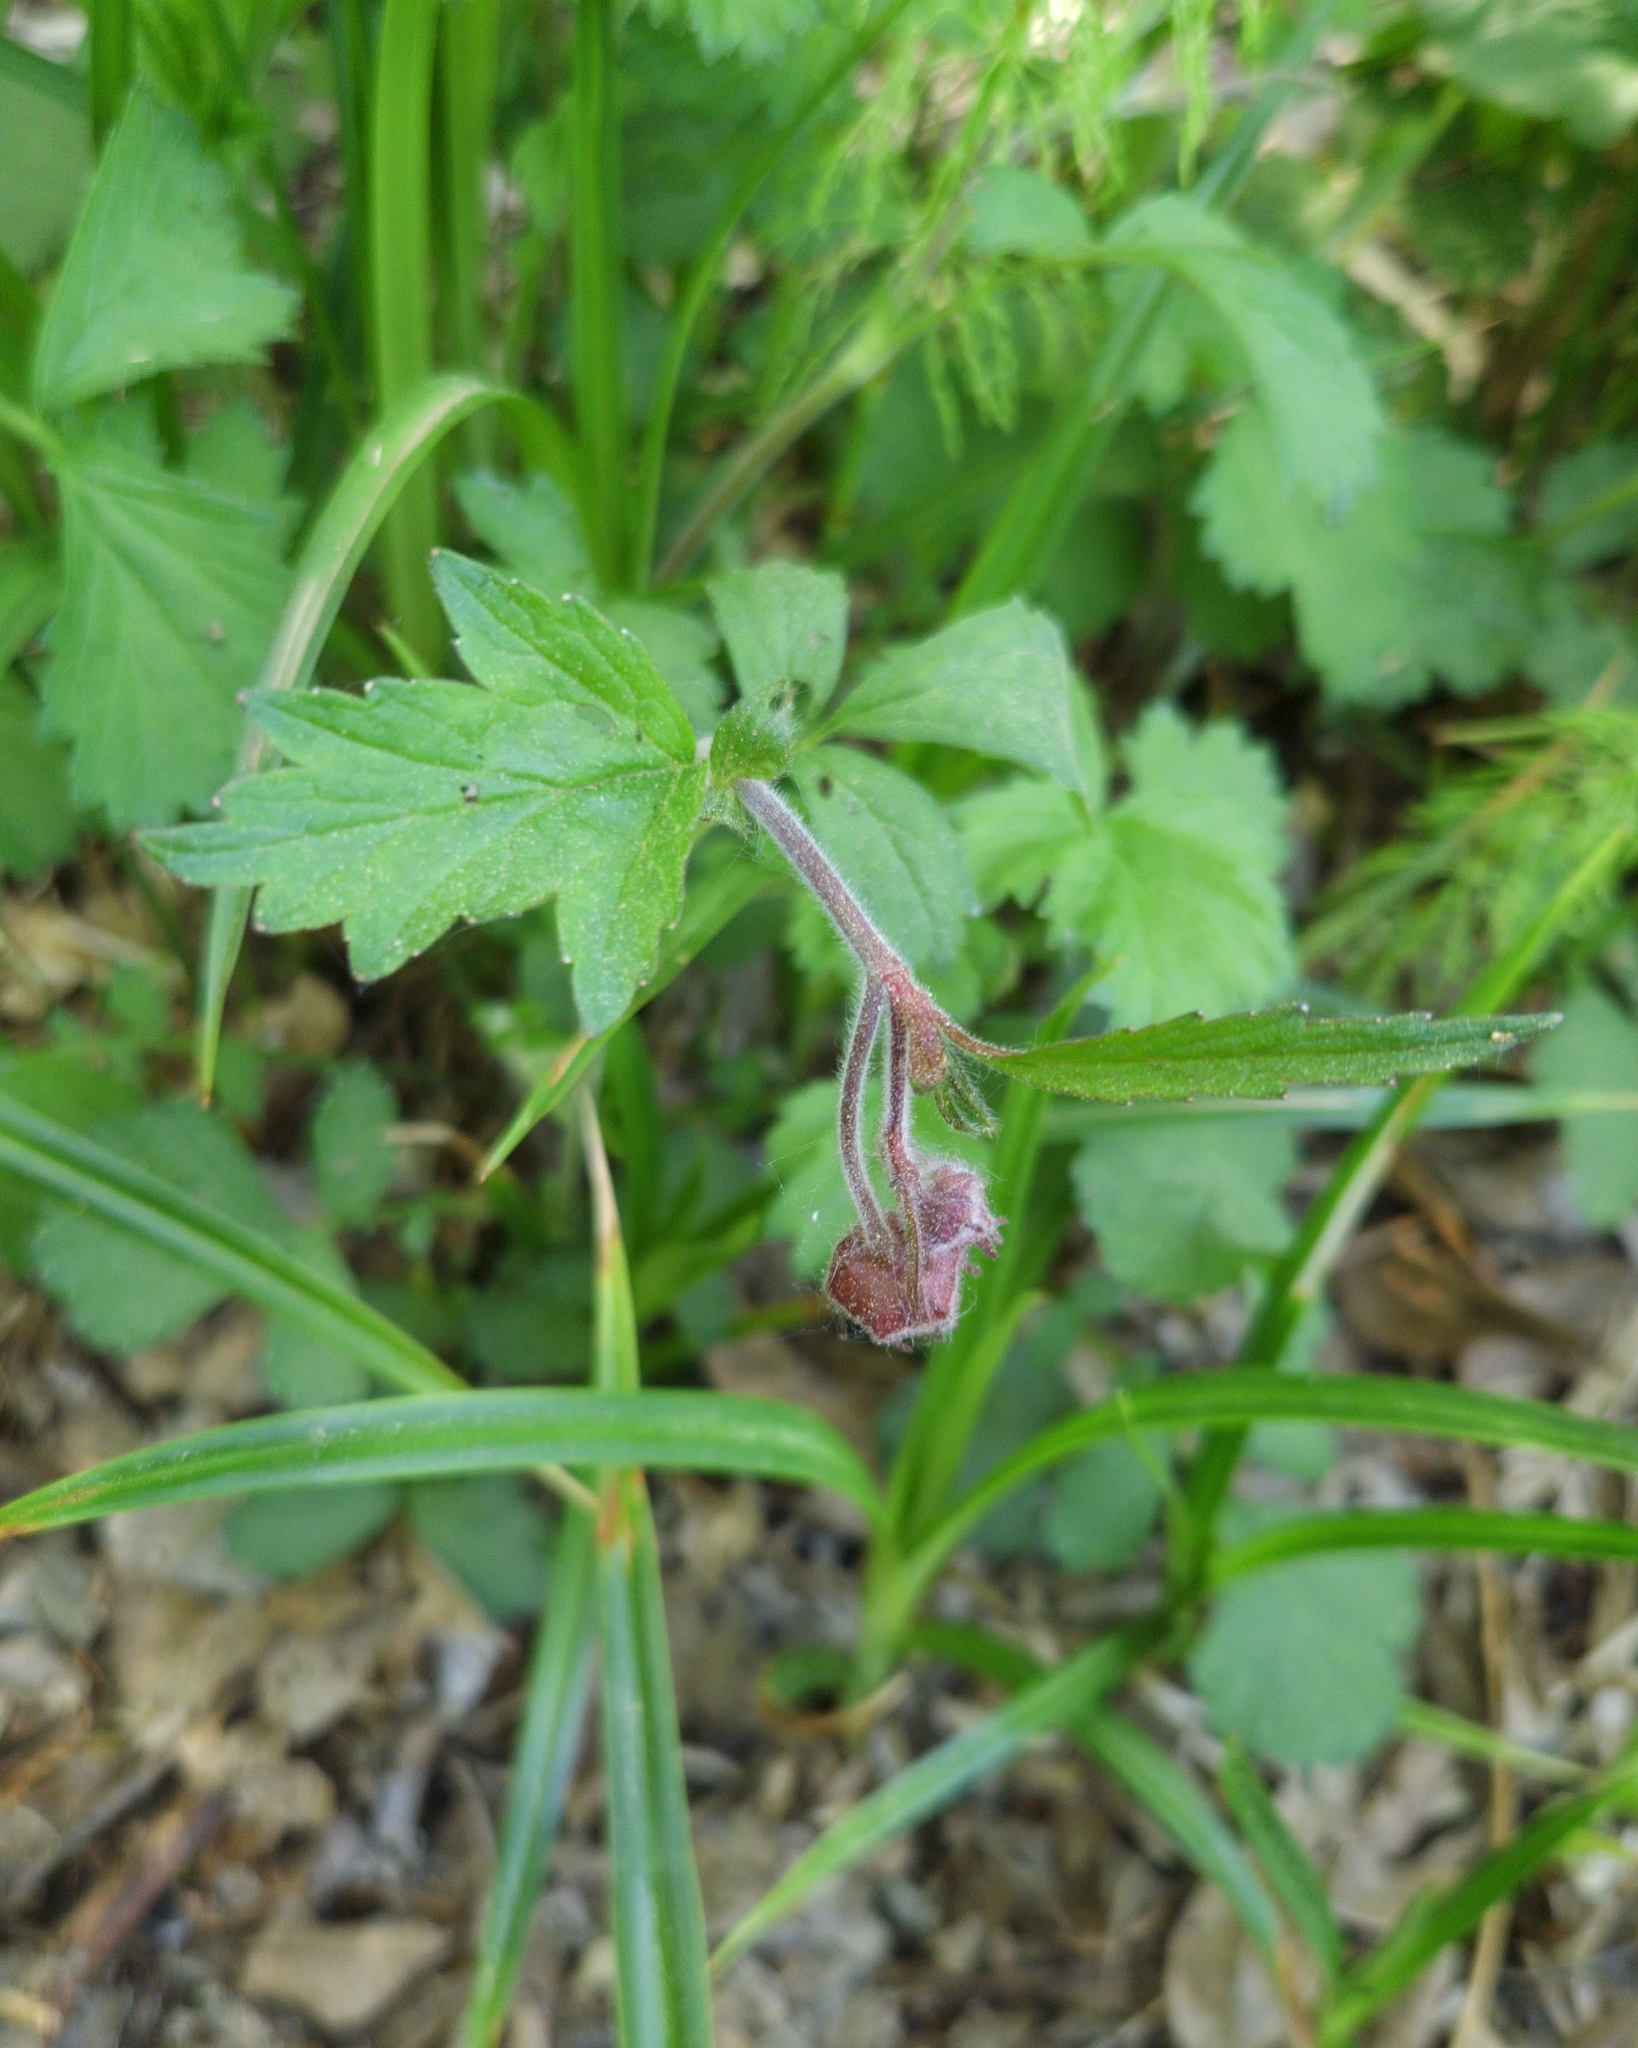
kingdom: Plantae
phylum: Tracheophyta
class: Magnoliopsida
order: Rosales
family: Rosaceae
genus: Geum
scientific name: Geum rivale
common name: Water avens
